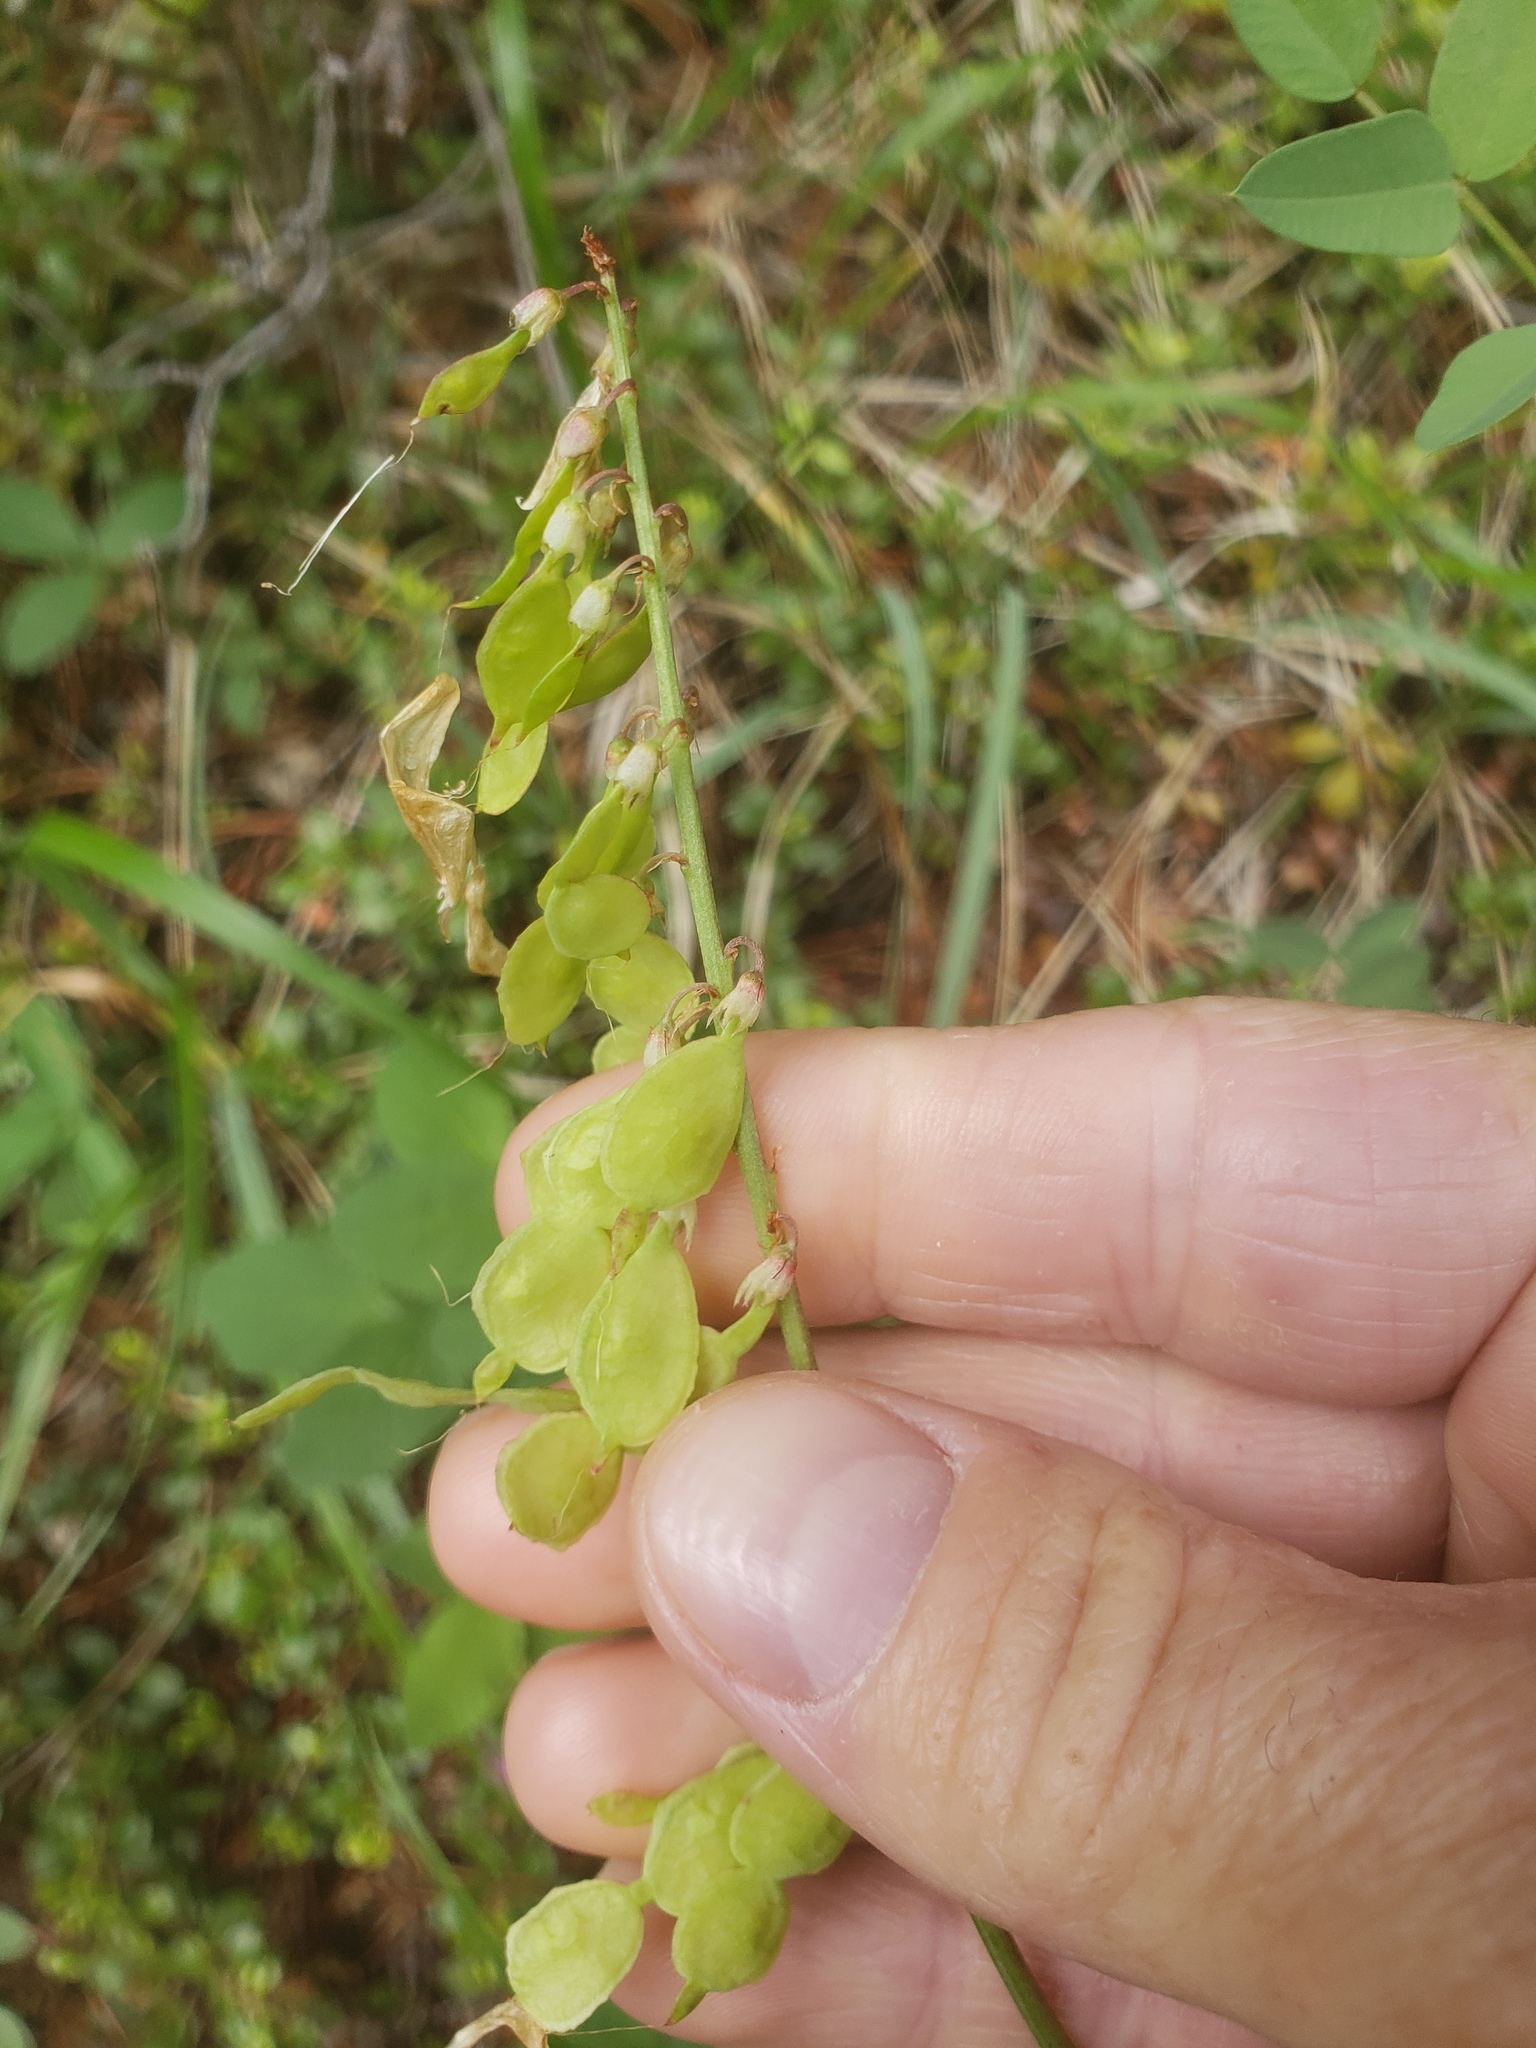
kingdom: Plantae
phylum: Tracheophyta
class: Magnoliopsida
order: Fabales
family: Fabaceae
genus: Hedysarum
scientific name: Hedysarum sulphurescens
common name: Sulphur hedysarum
